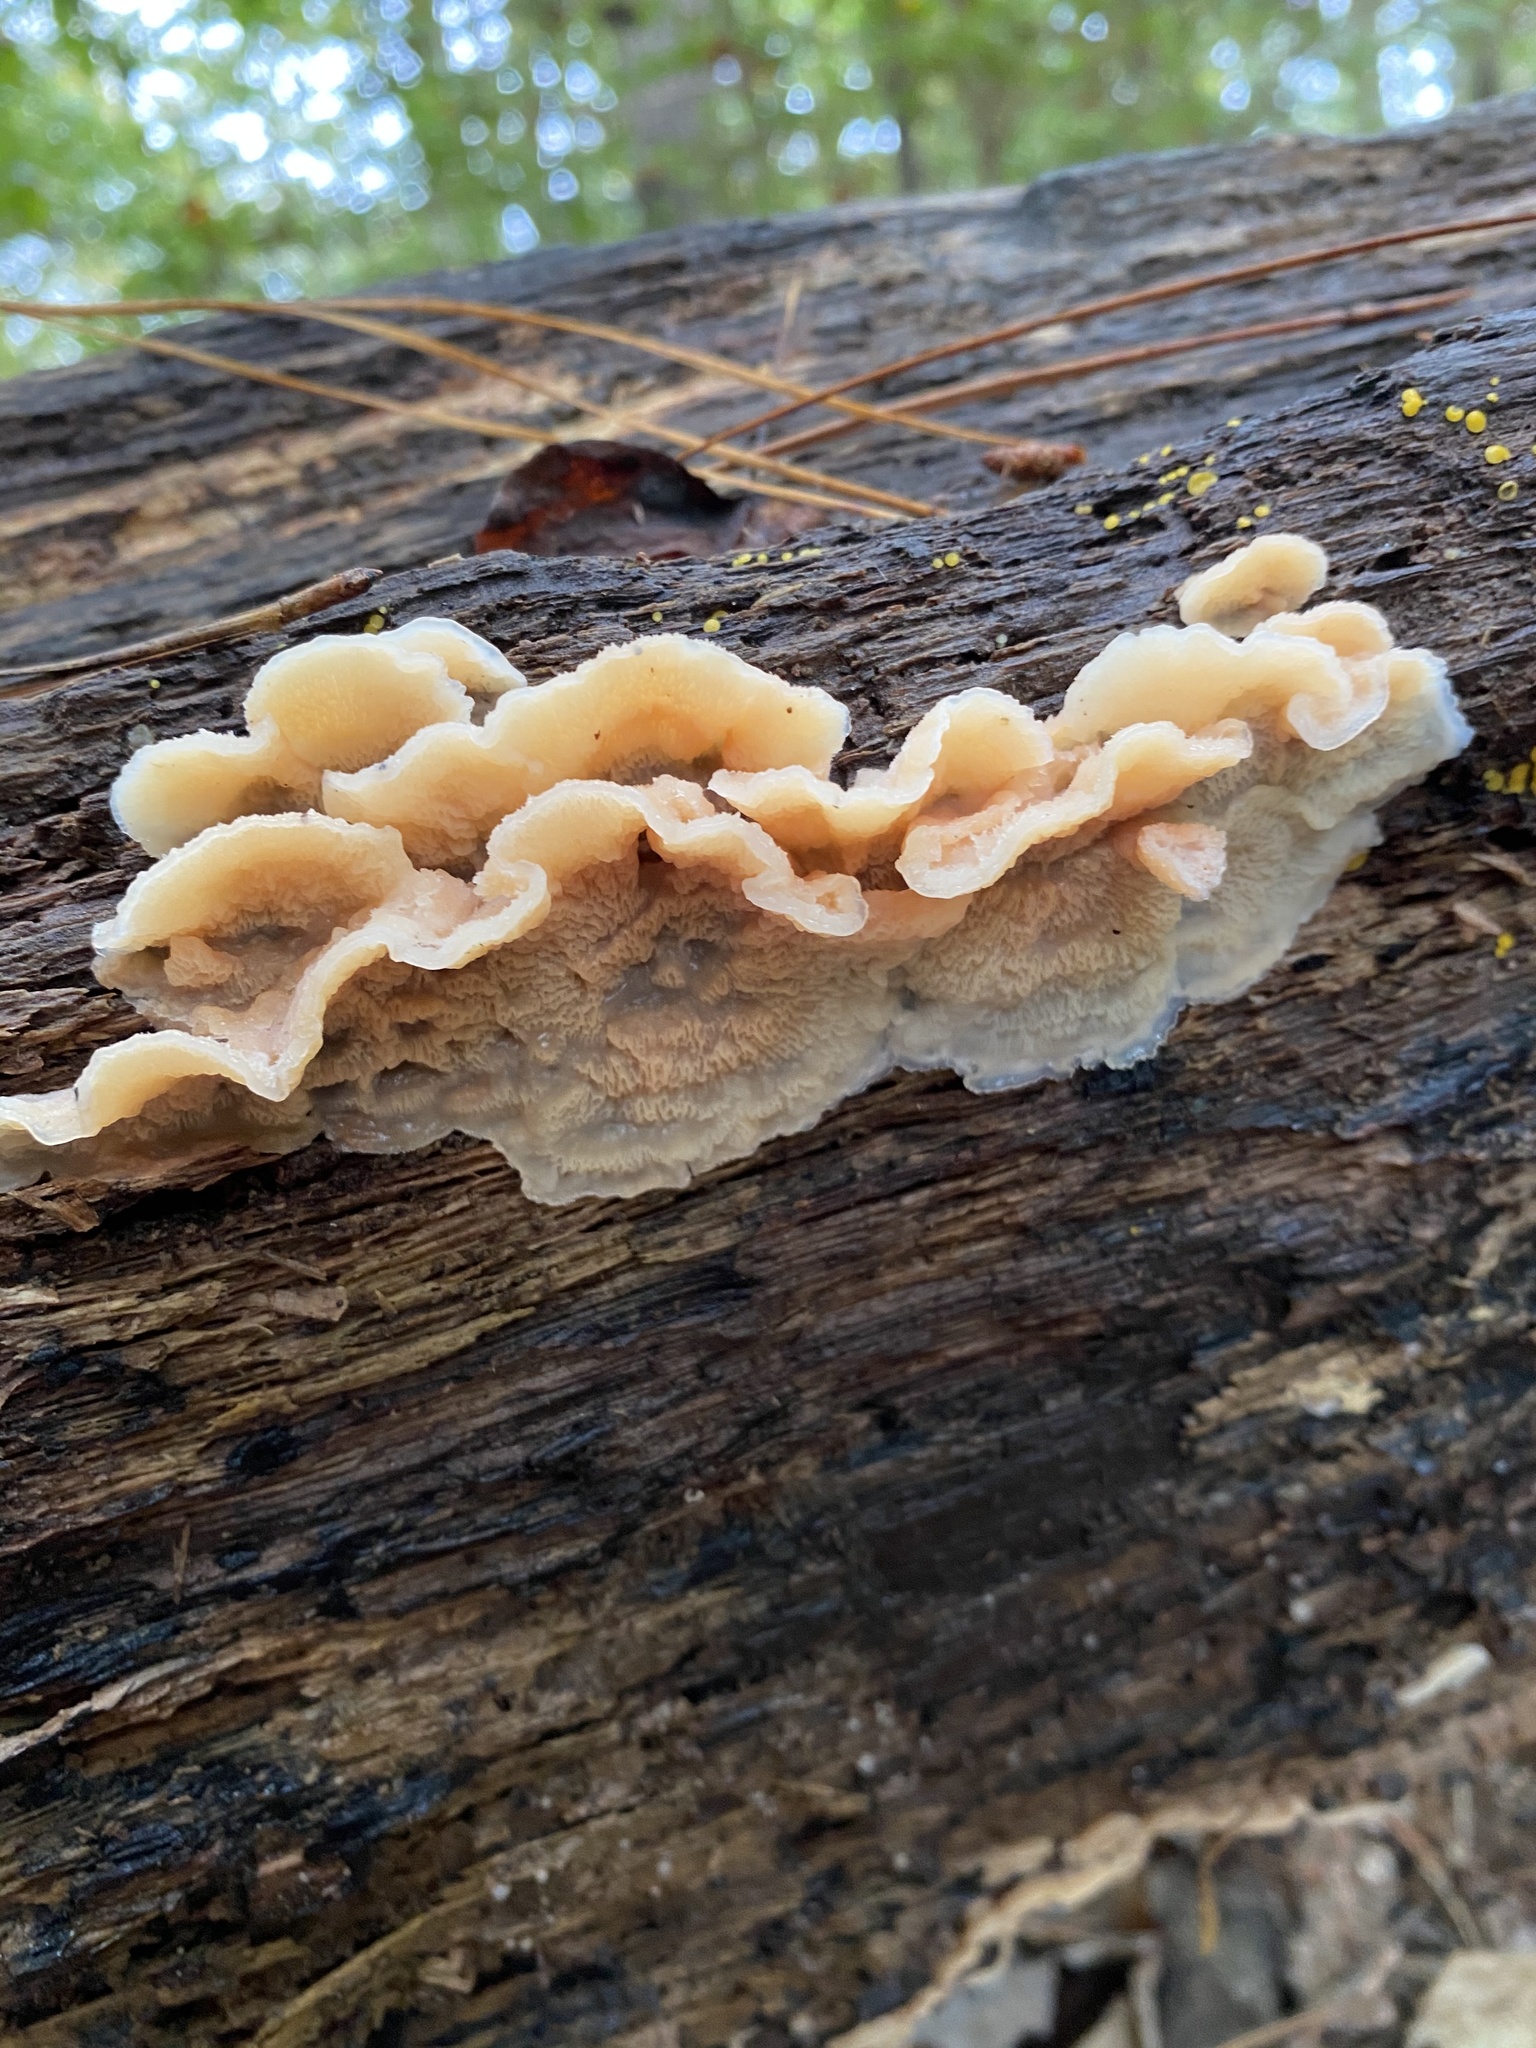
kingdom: Fungi
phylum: Basidiomycota
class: Agaricomycetes
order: Polyporales
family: Meruliaceae
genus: Phlebia
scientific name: Phlebia tremellosa
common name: Jelly rot
